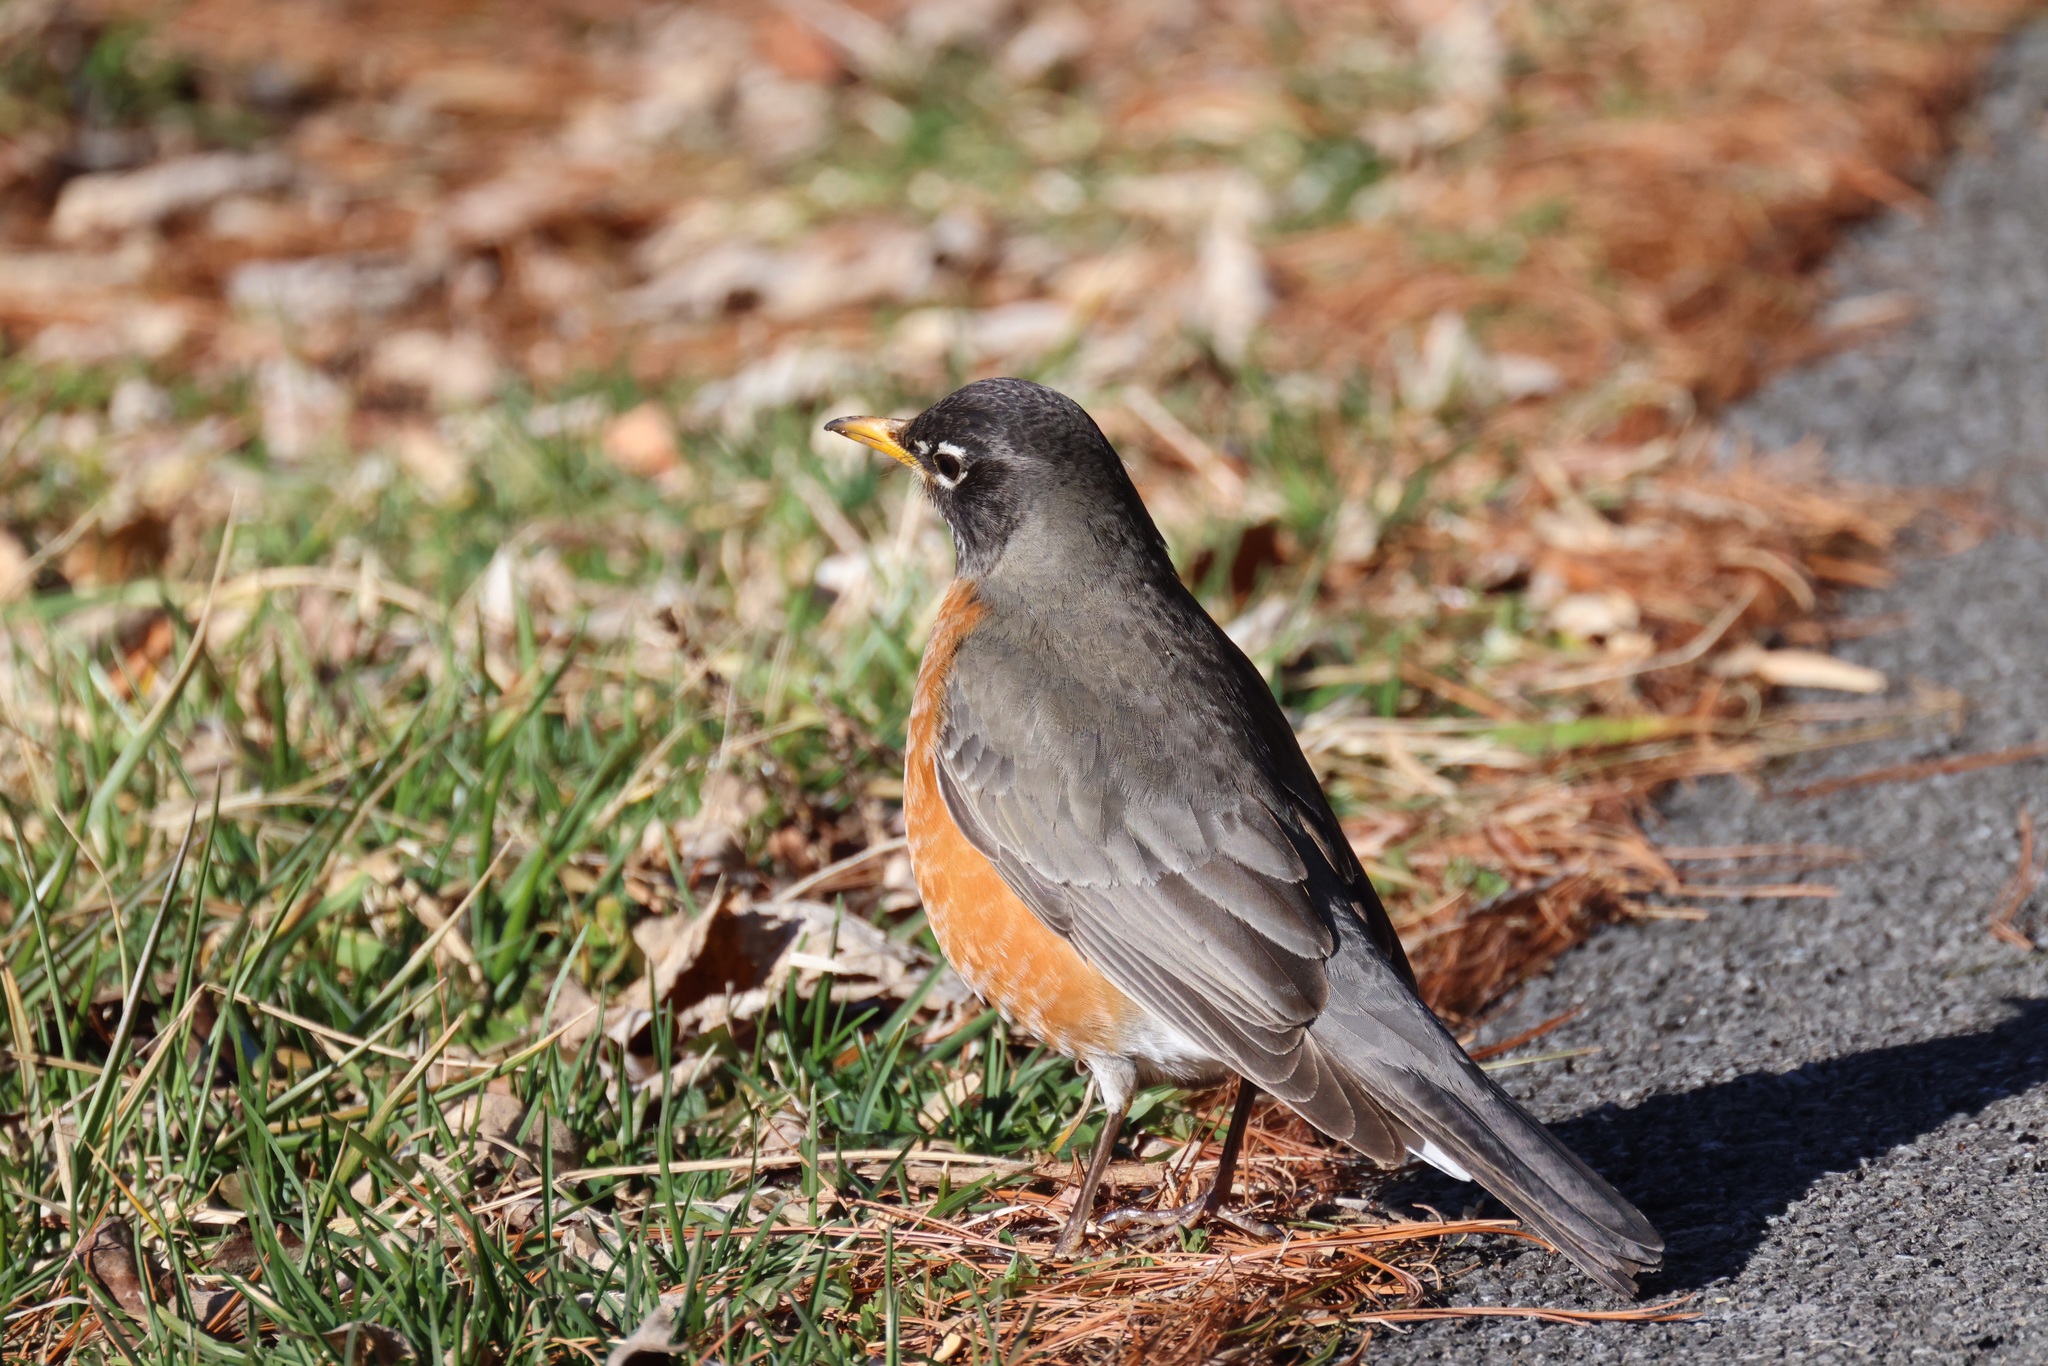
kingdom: Animalia
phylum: Chordata
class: Aves
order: Passeriformes
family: Turdidae
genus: Turdus
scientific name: Turdus migratorius
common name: American robin
